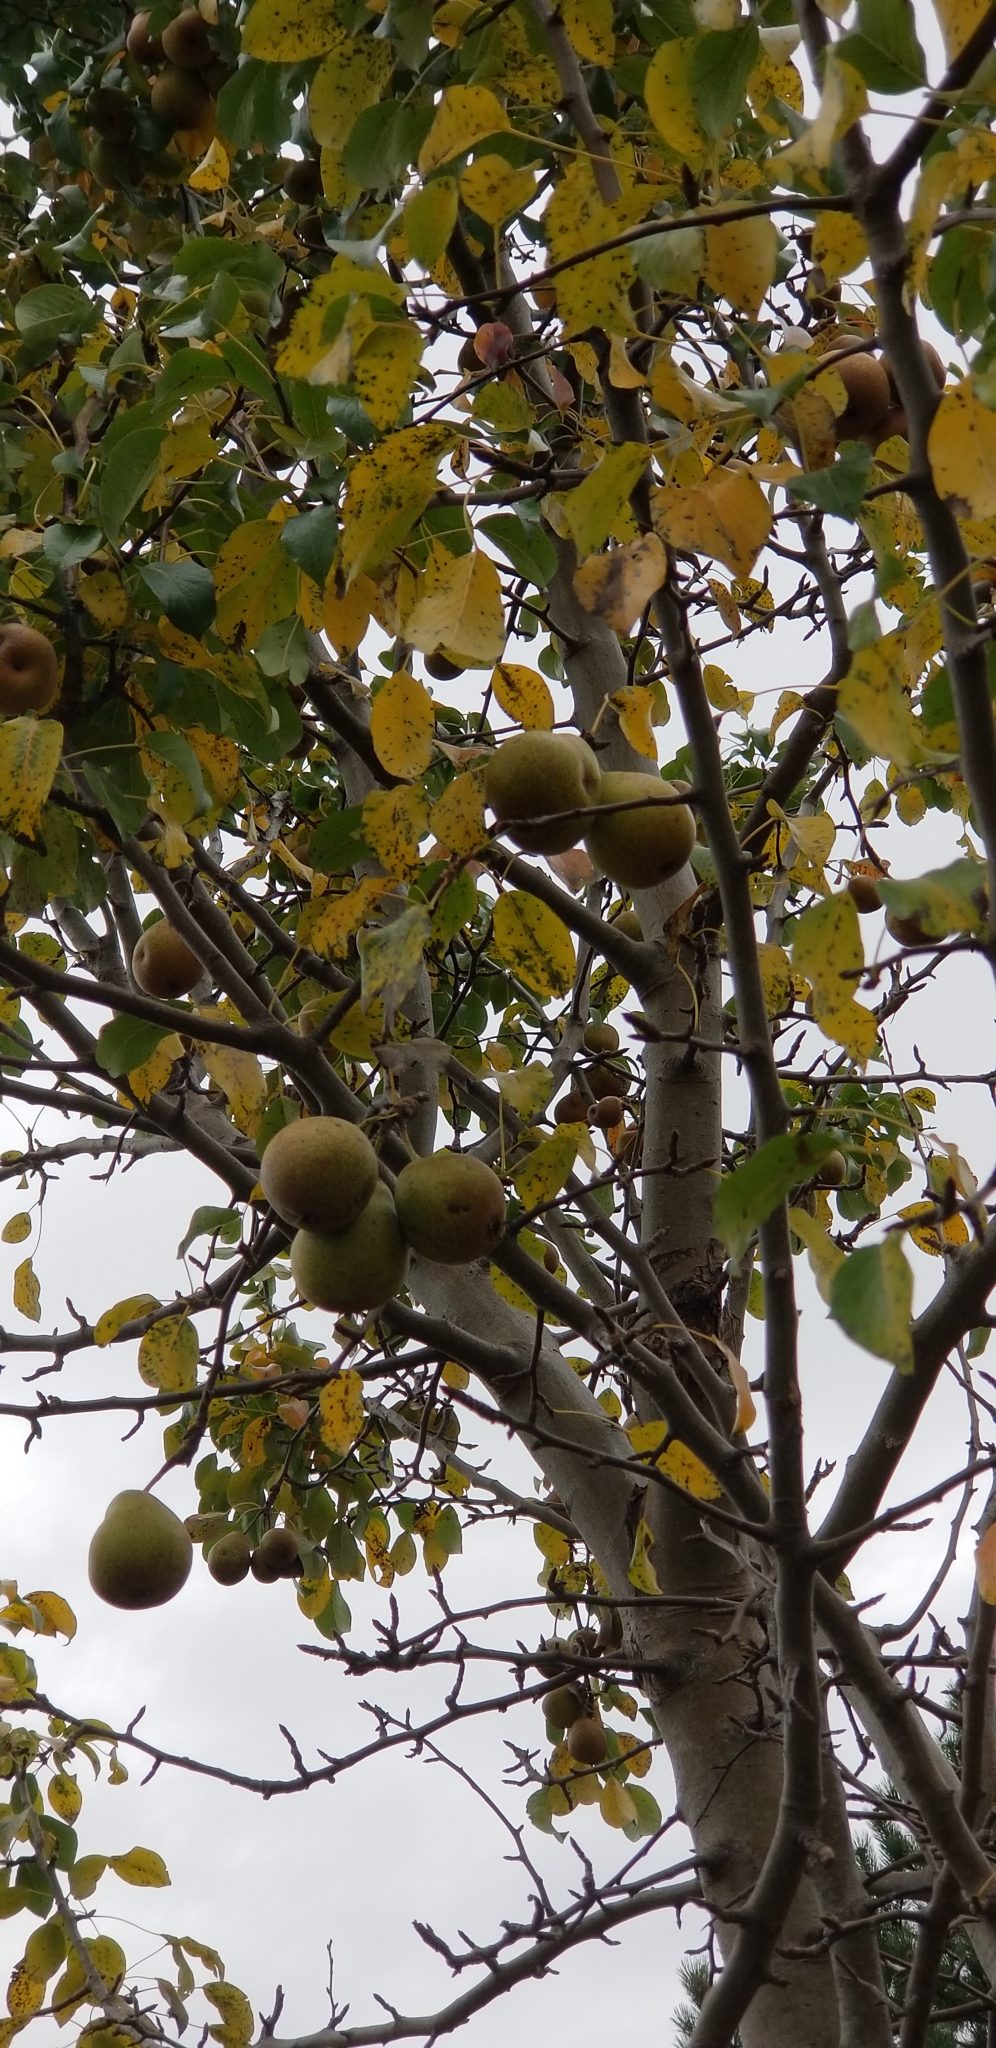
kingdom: Plantae
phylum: Tracheophyta
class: Magnoliopsida
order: Rosales
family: Rosaceae
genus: Pyrus
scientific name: Pyrus communis
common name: Pear
